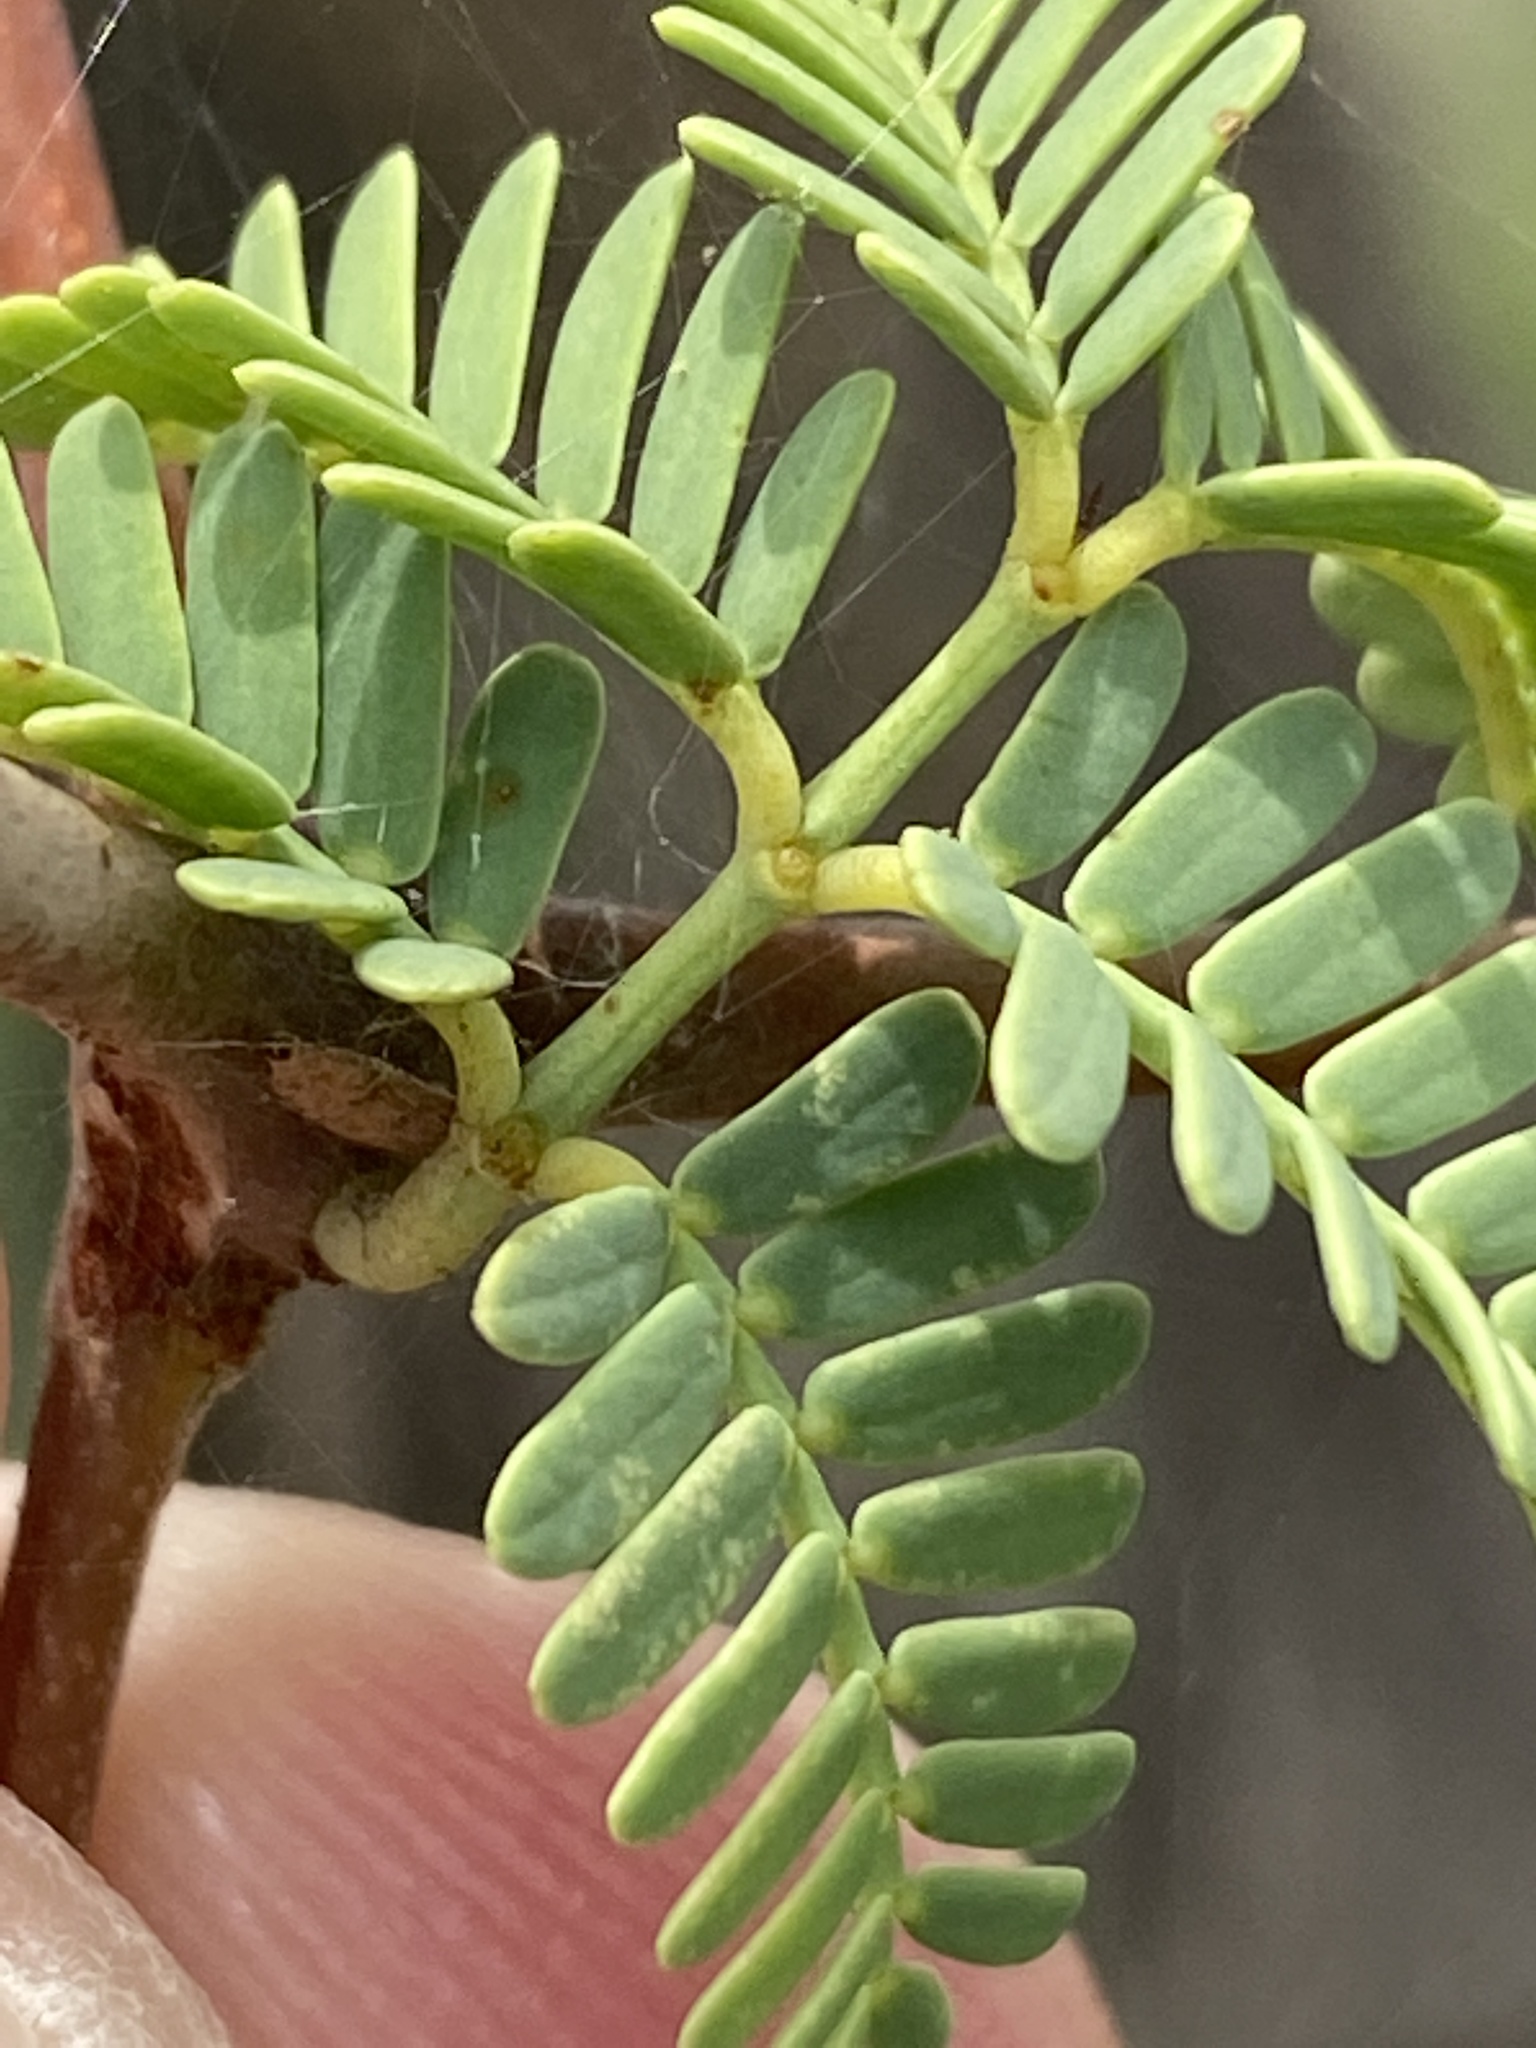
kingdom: Plantae
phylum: Tracheophyta
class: Magnoliopsida
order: Fabales
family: Fabaceae
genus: Vachellia
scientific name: Vachellia erioloba
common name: Camel thorn
